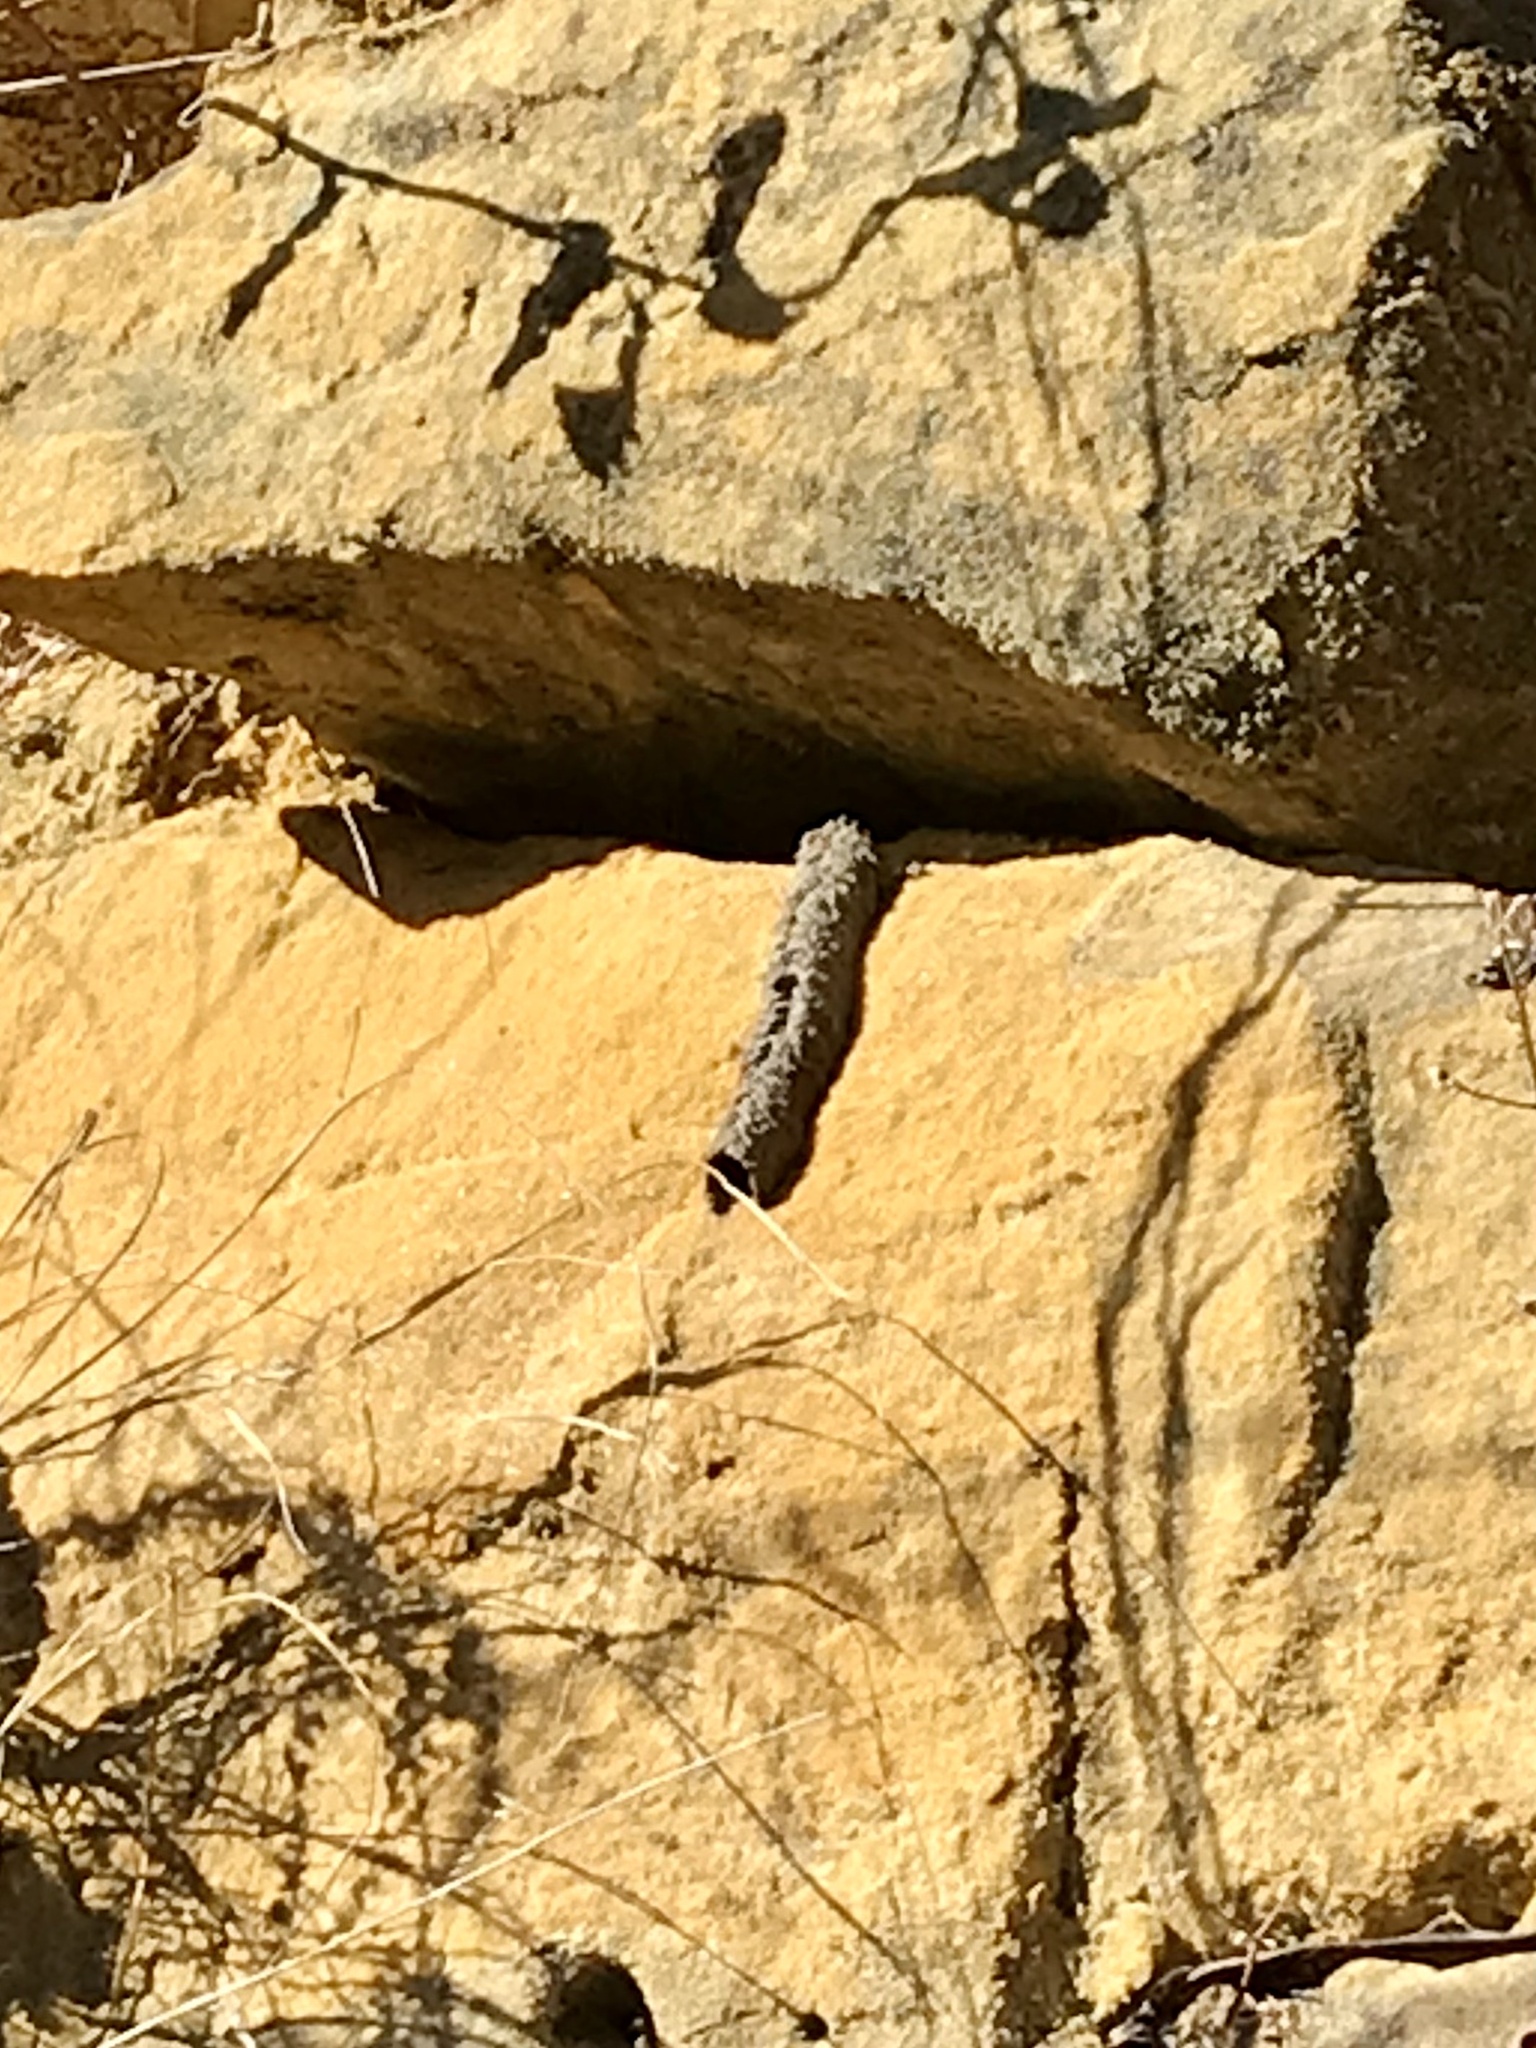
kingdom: Animalia
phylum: Arthropoda
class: Insecta
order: Hymenoptera
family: Crabronidae
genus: Trypoxylon
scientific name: Trypoxylon politum
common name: Organ-pipe mud-dauber wasp
